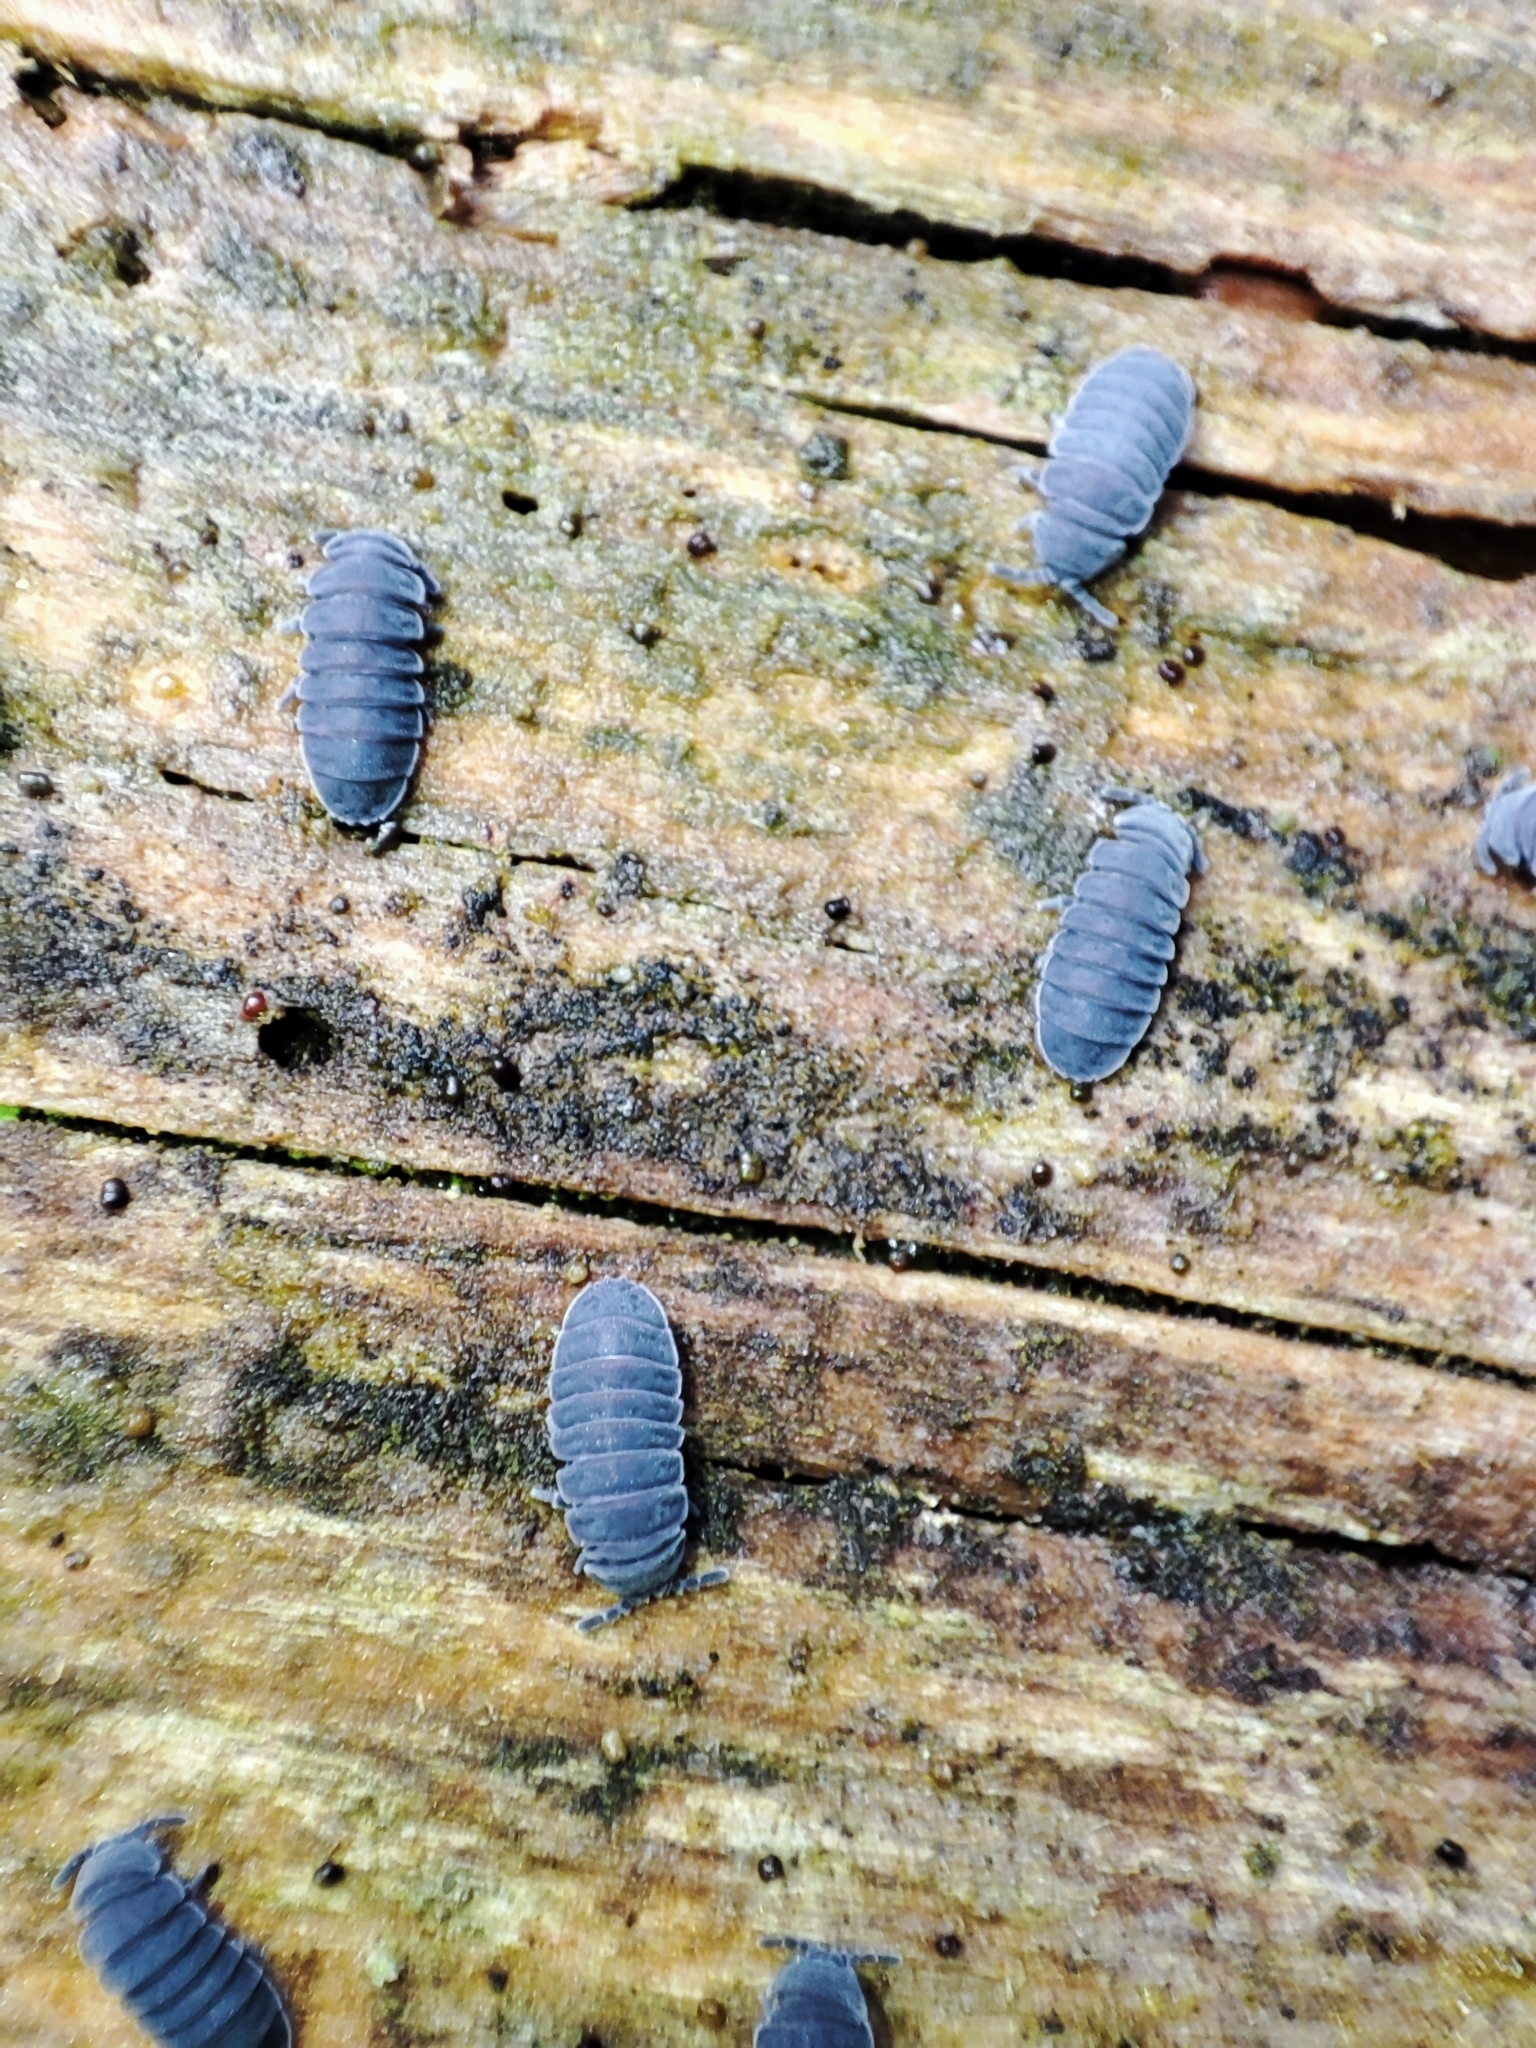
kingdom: Animalia
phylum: Arthropoda
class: Collembola
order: Poduromorpha
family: Onychiuridae
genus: Tetrodontophora
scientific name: Tetrodontophora bielanensis
